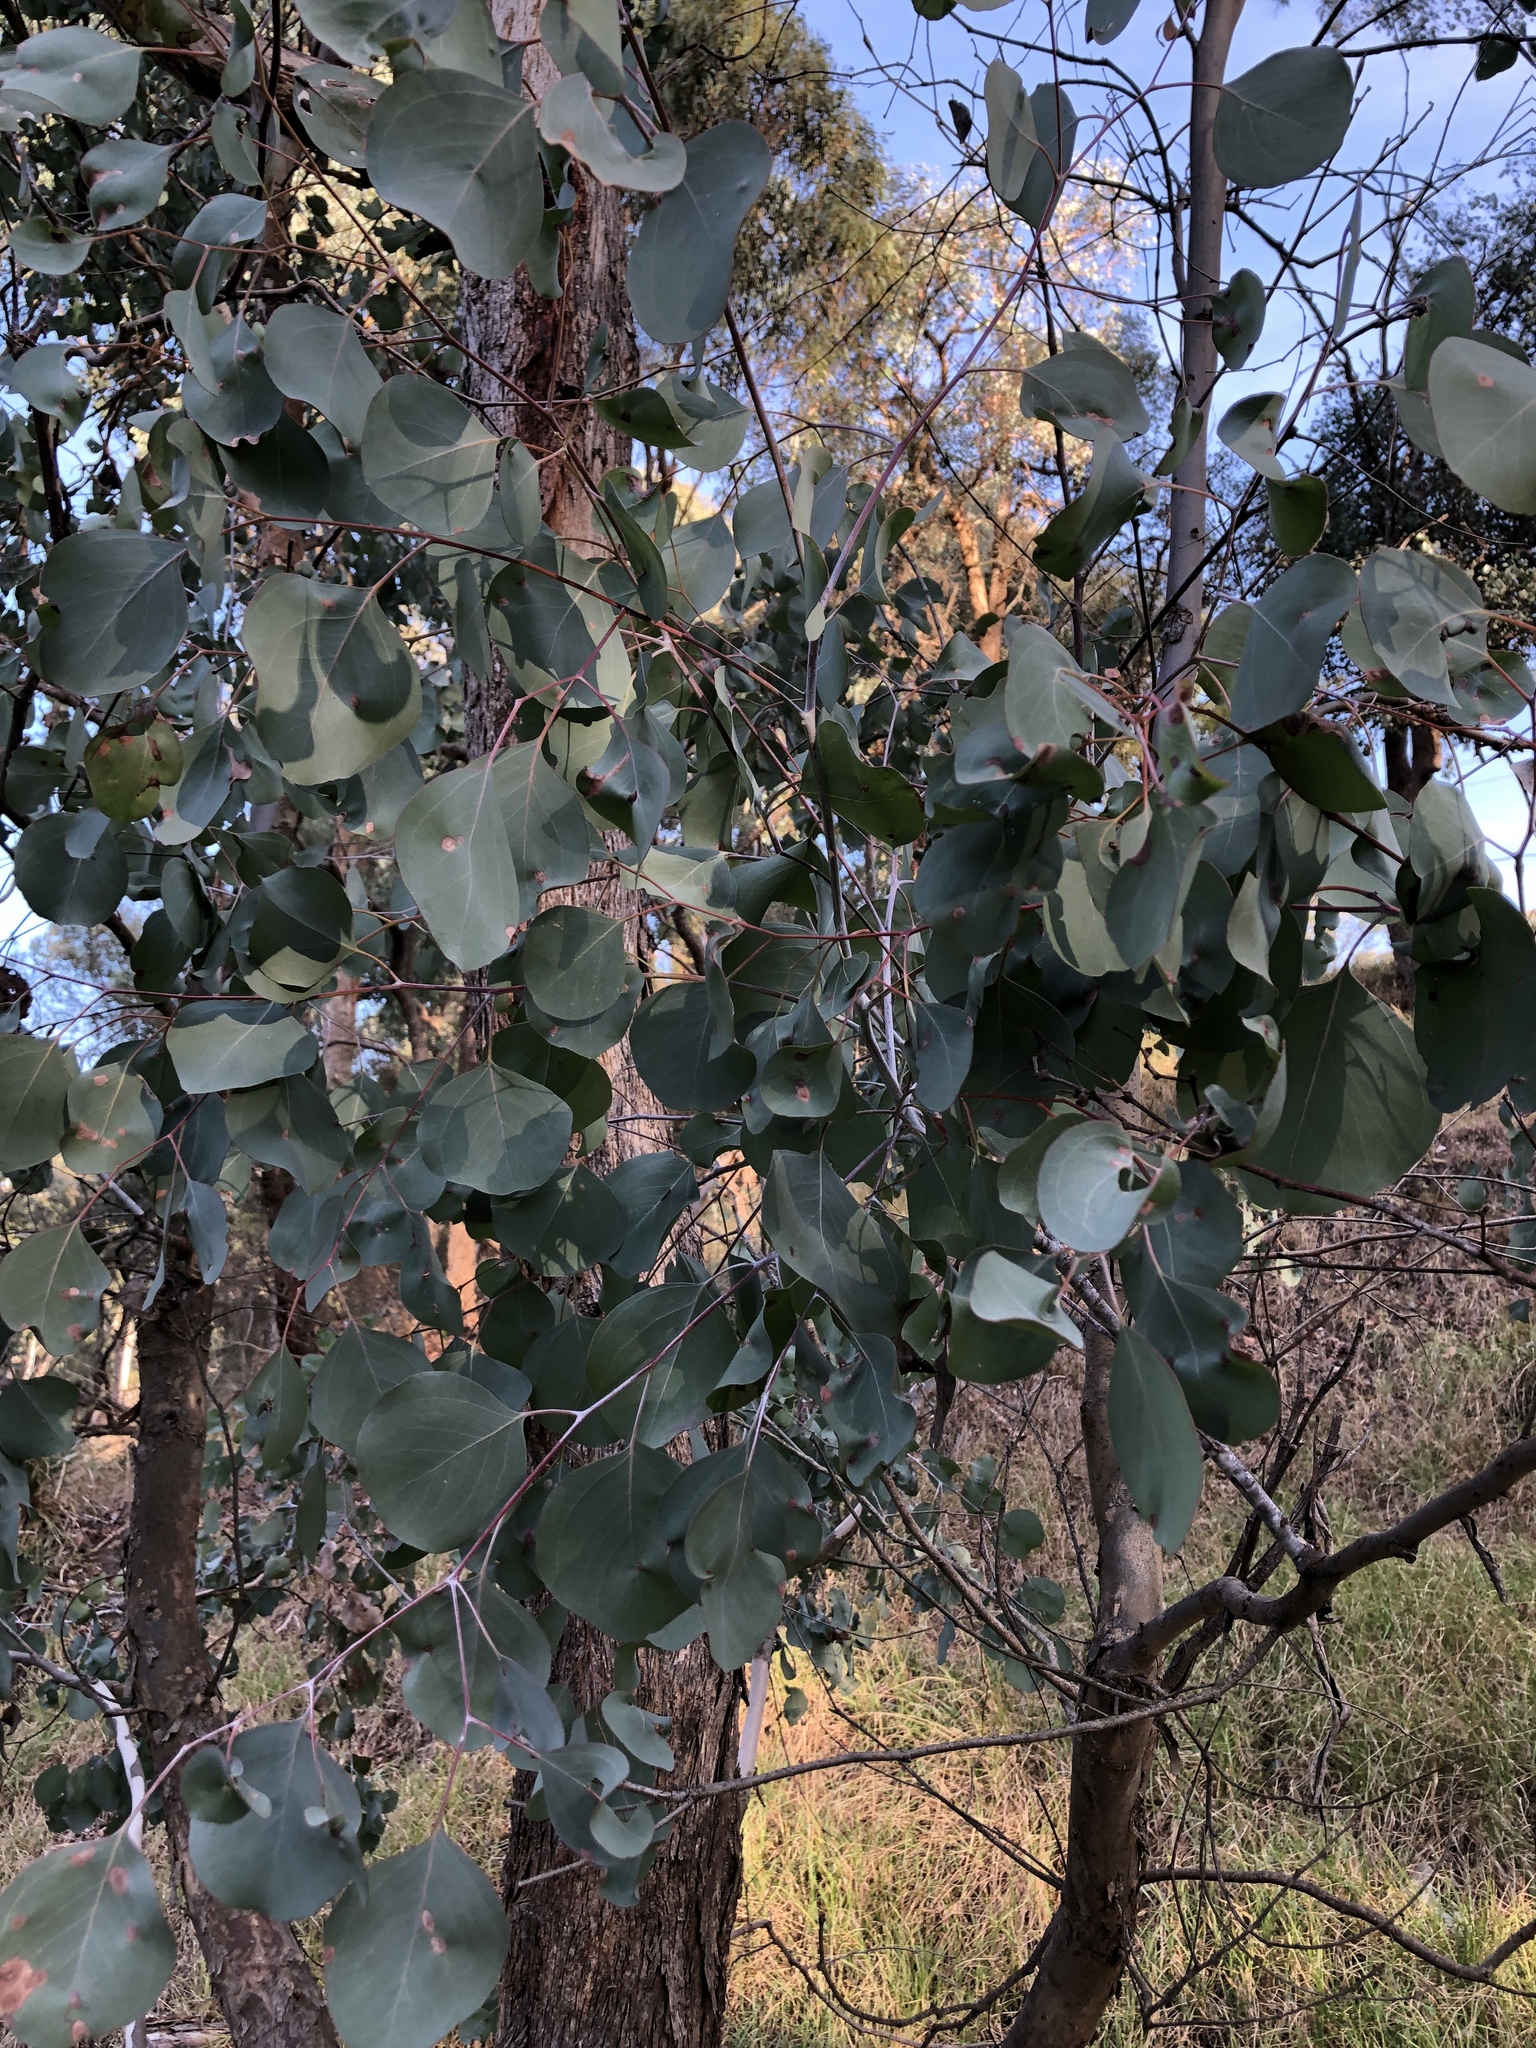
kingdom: Plantae
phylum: Tracheophyta
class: Magnoliopsida
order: Myrtales
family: Myrtaceae
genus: Eucalyptus
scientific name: Eucalyptus polyanthemos
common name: Red-box
